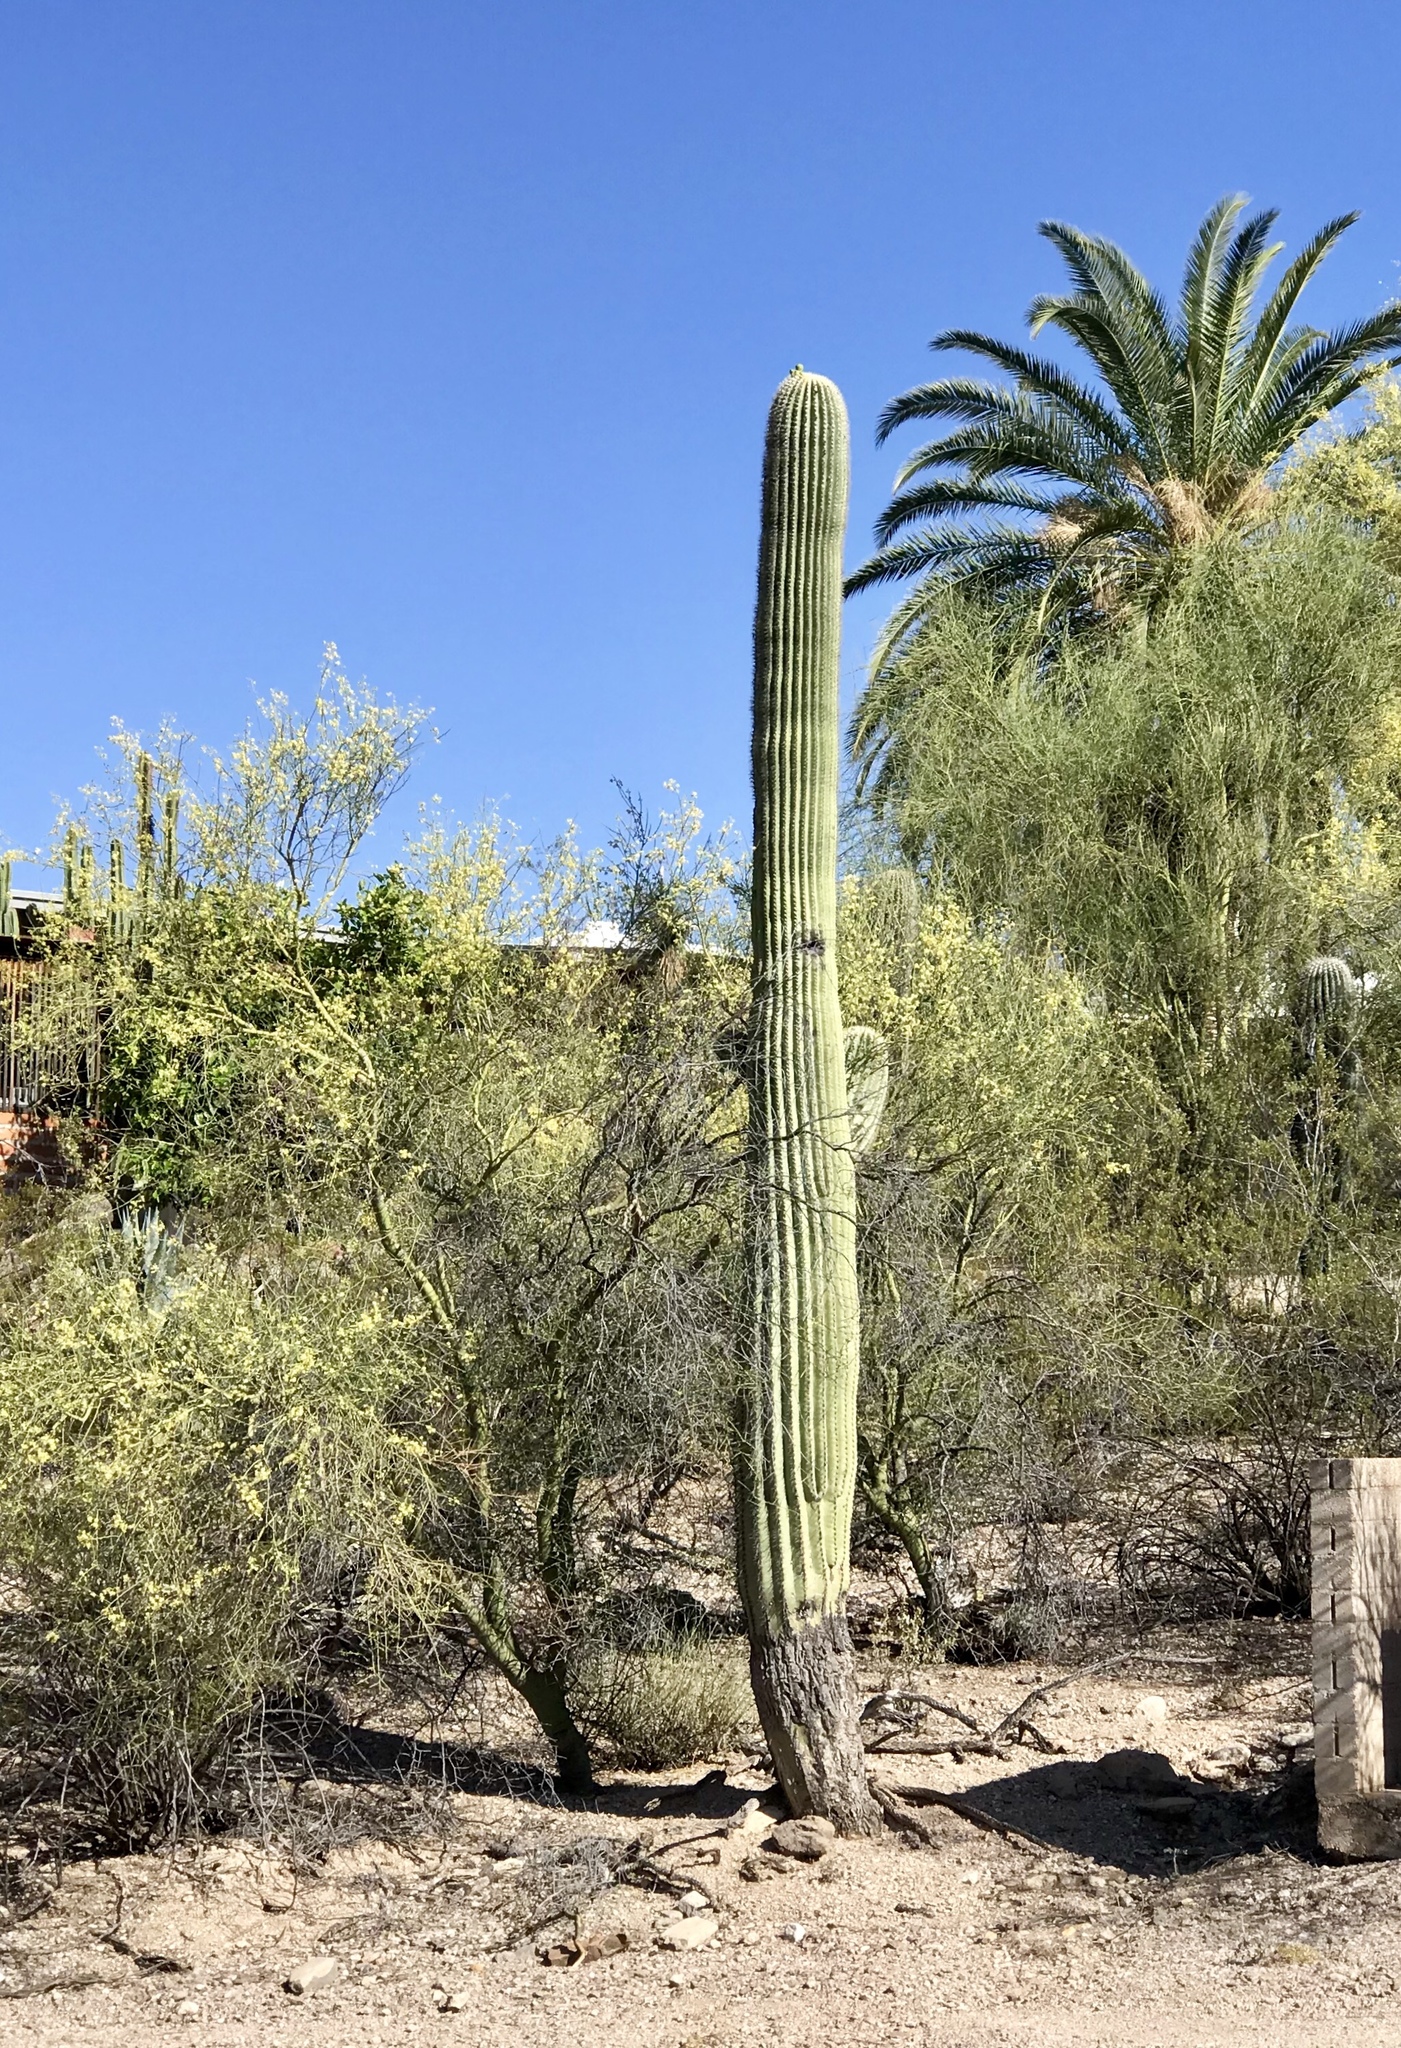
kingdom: Plantae
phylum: Tracheophyta
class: Magnoliopsida
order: Caryophyllales
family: Cactaceae
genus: Carnegiea
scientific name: Carnegiea gigantea
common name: Saguaro
